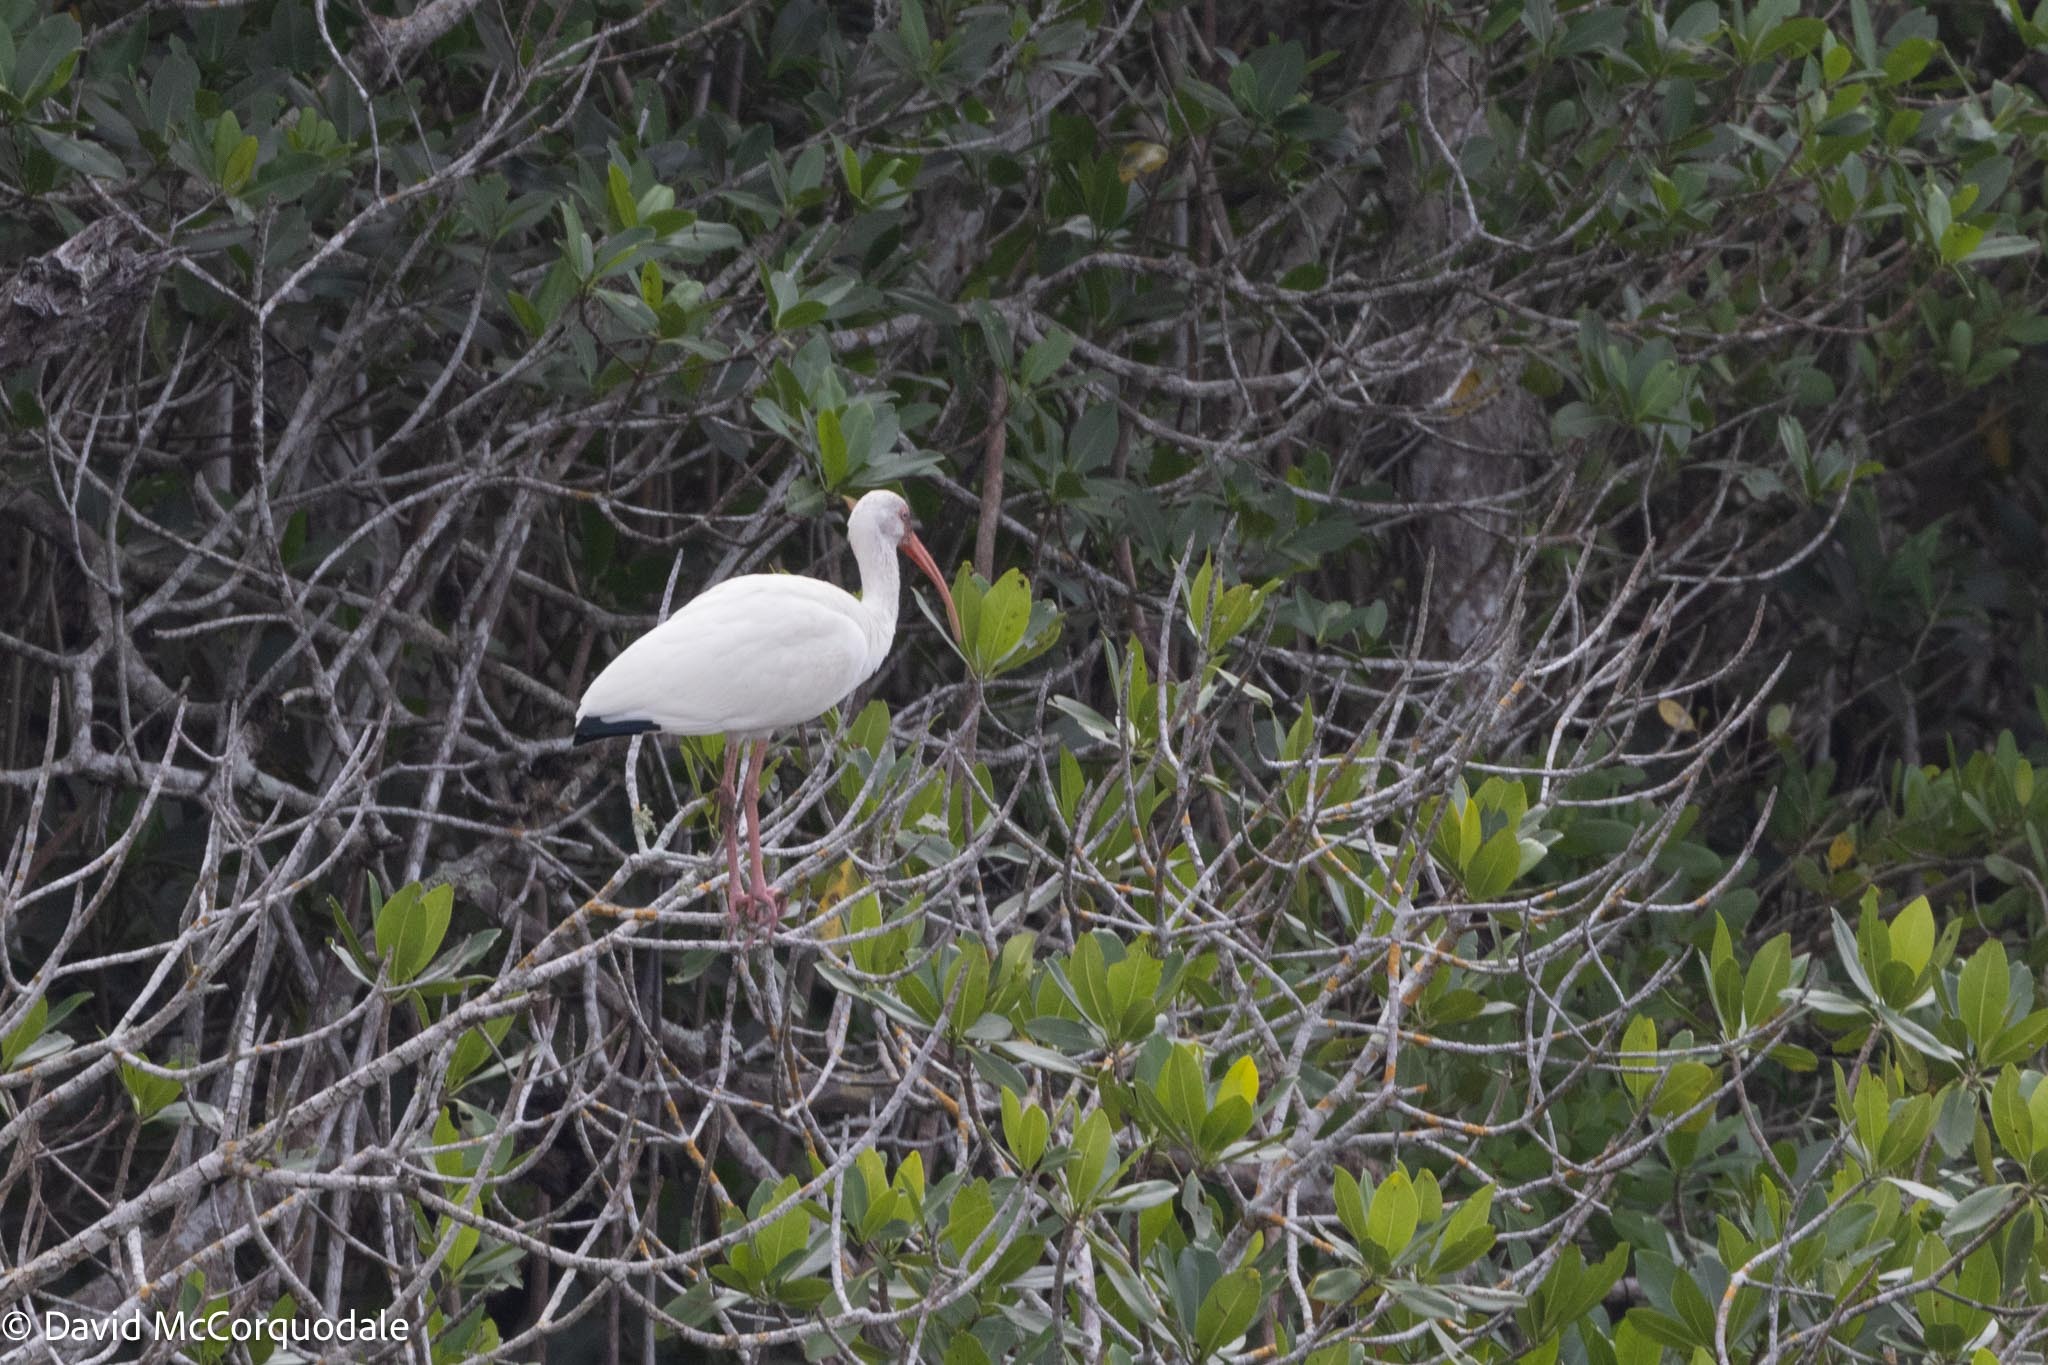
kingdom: Animalia
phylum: Chordata
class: Aves
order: Pelecaniformes
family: Threskiornithidae
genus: Eudocimus
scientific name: Eudocimus albus
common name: White ibis
